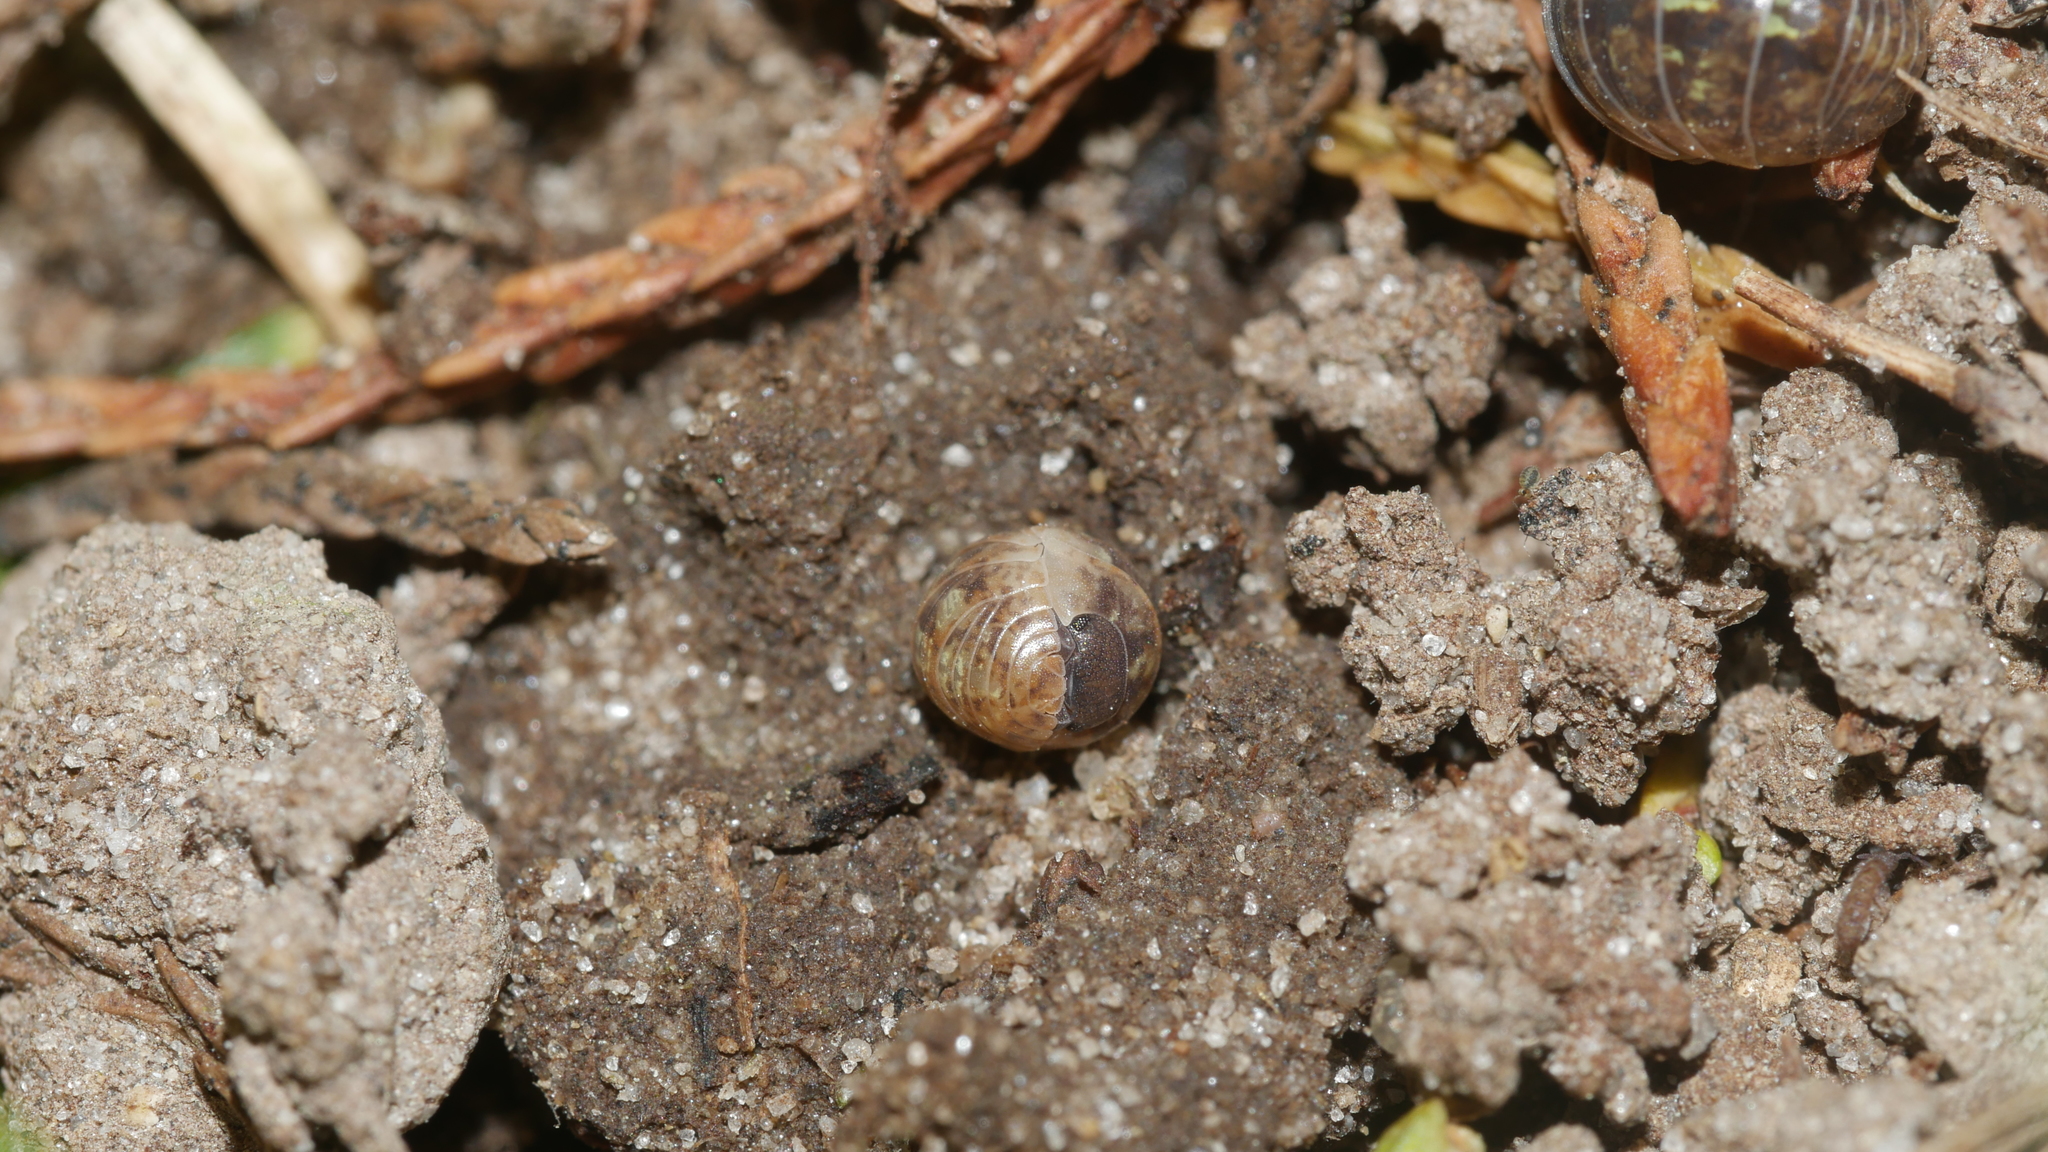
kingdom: Animalia
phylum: Arthropoda
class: Malacostraca
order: Isopoda
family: Armadillidiidae
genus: Armadillidium
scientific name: Armadillidium vulgare
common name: Common pill woodlouse
